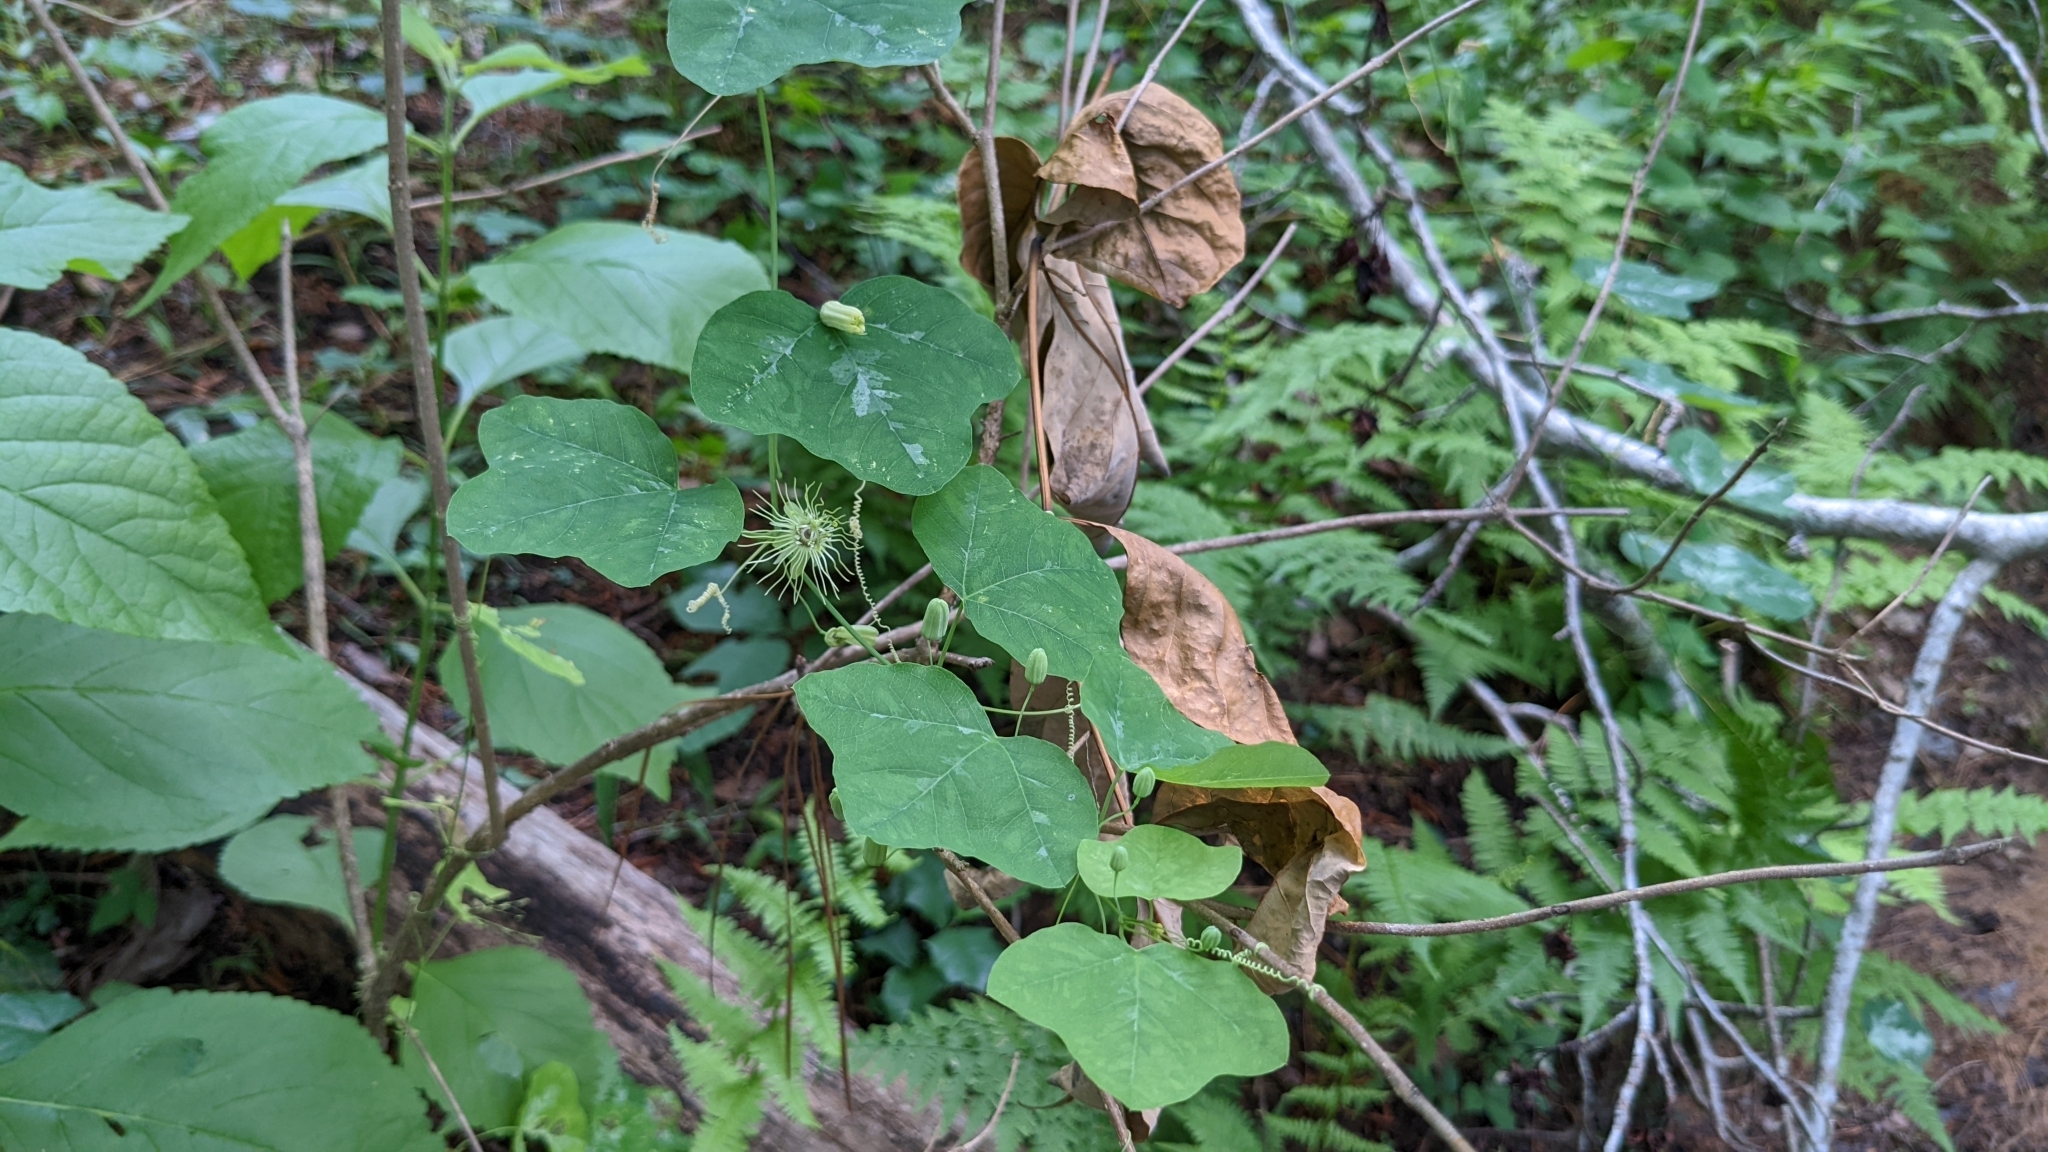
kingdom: Plantae
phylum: Tracheophyta
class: Magnoliopsida
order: Malpighiales
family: Passifloraceae
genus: Passiflora
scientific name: Passiflora lutea
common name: Yellow passionflower
